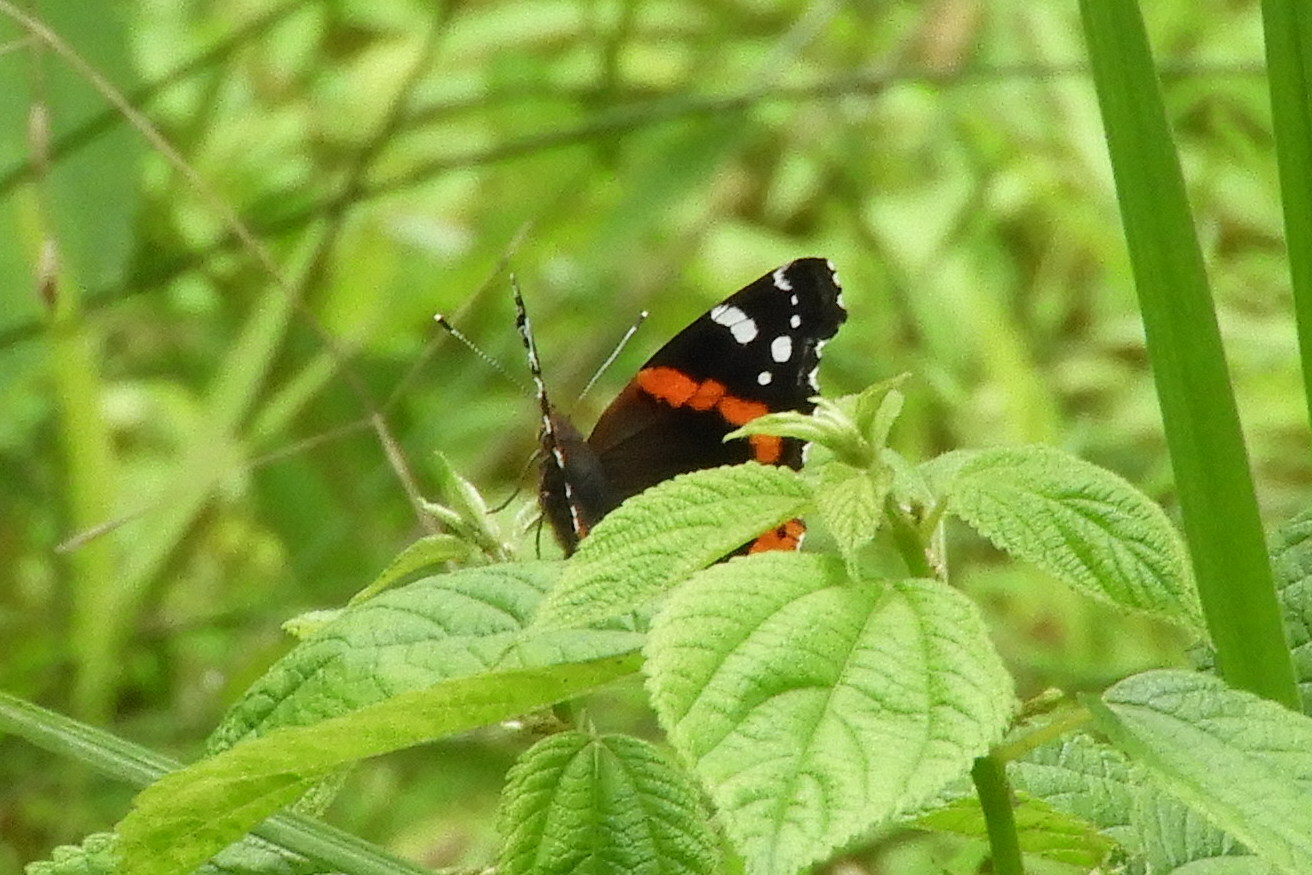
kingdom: Animalia
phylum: Arthropoda
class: Insecta
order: Lepidoptera
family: Nymphalidae
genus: Vanessa
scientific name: Vanessa atalanta
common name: Red admiral
